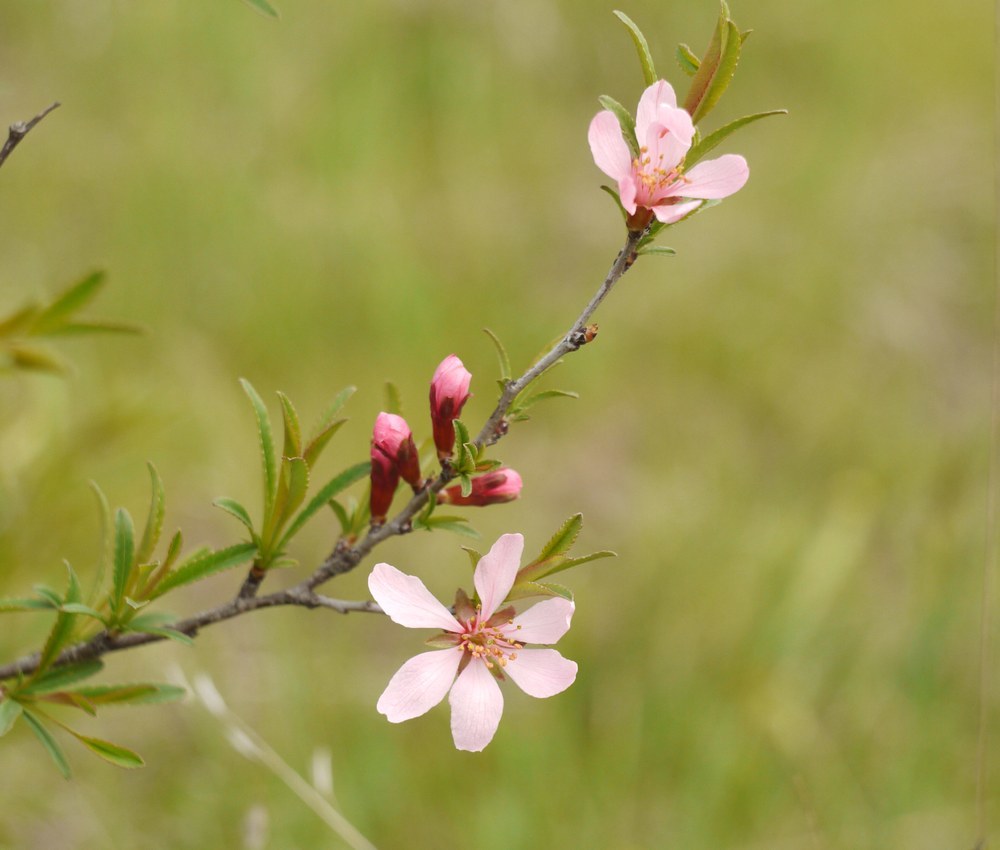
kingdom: Plantae
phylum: Tracheophyta
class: Magnoliopsida
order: Rosales
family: Rosaceae
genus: Prunus
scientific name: Prunus tenella
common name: Dwarf russian almond
